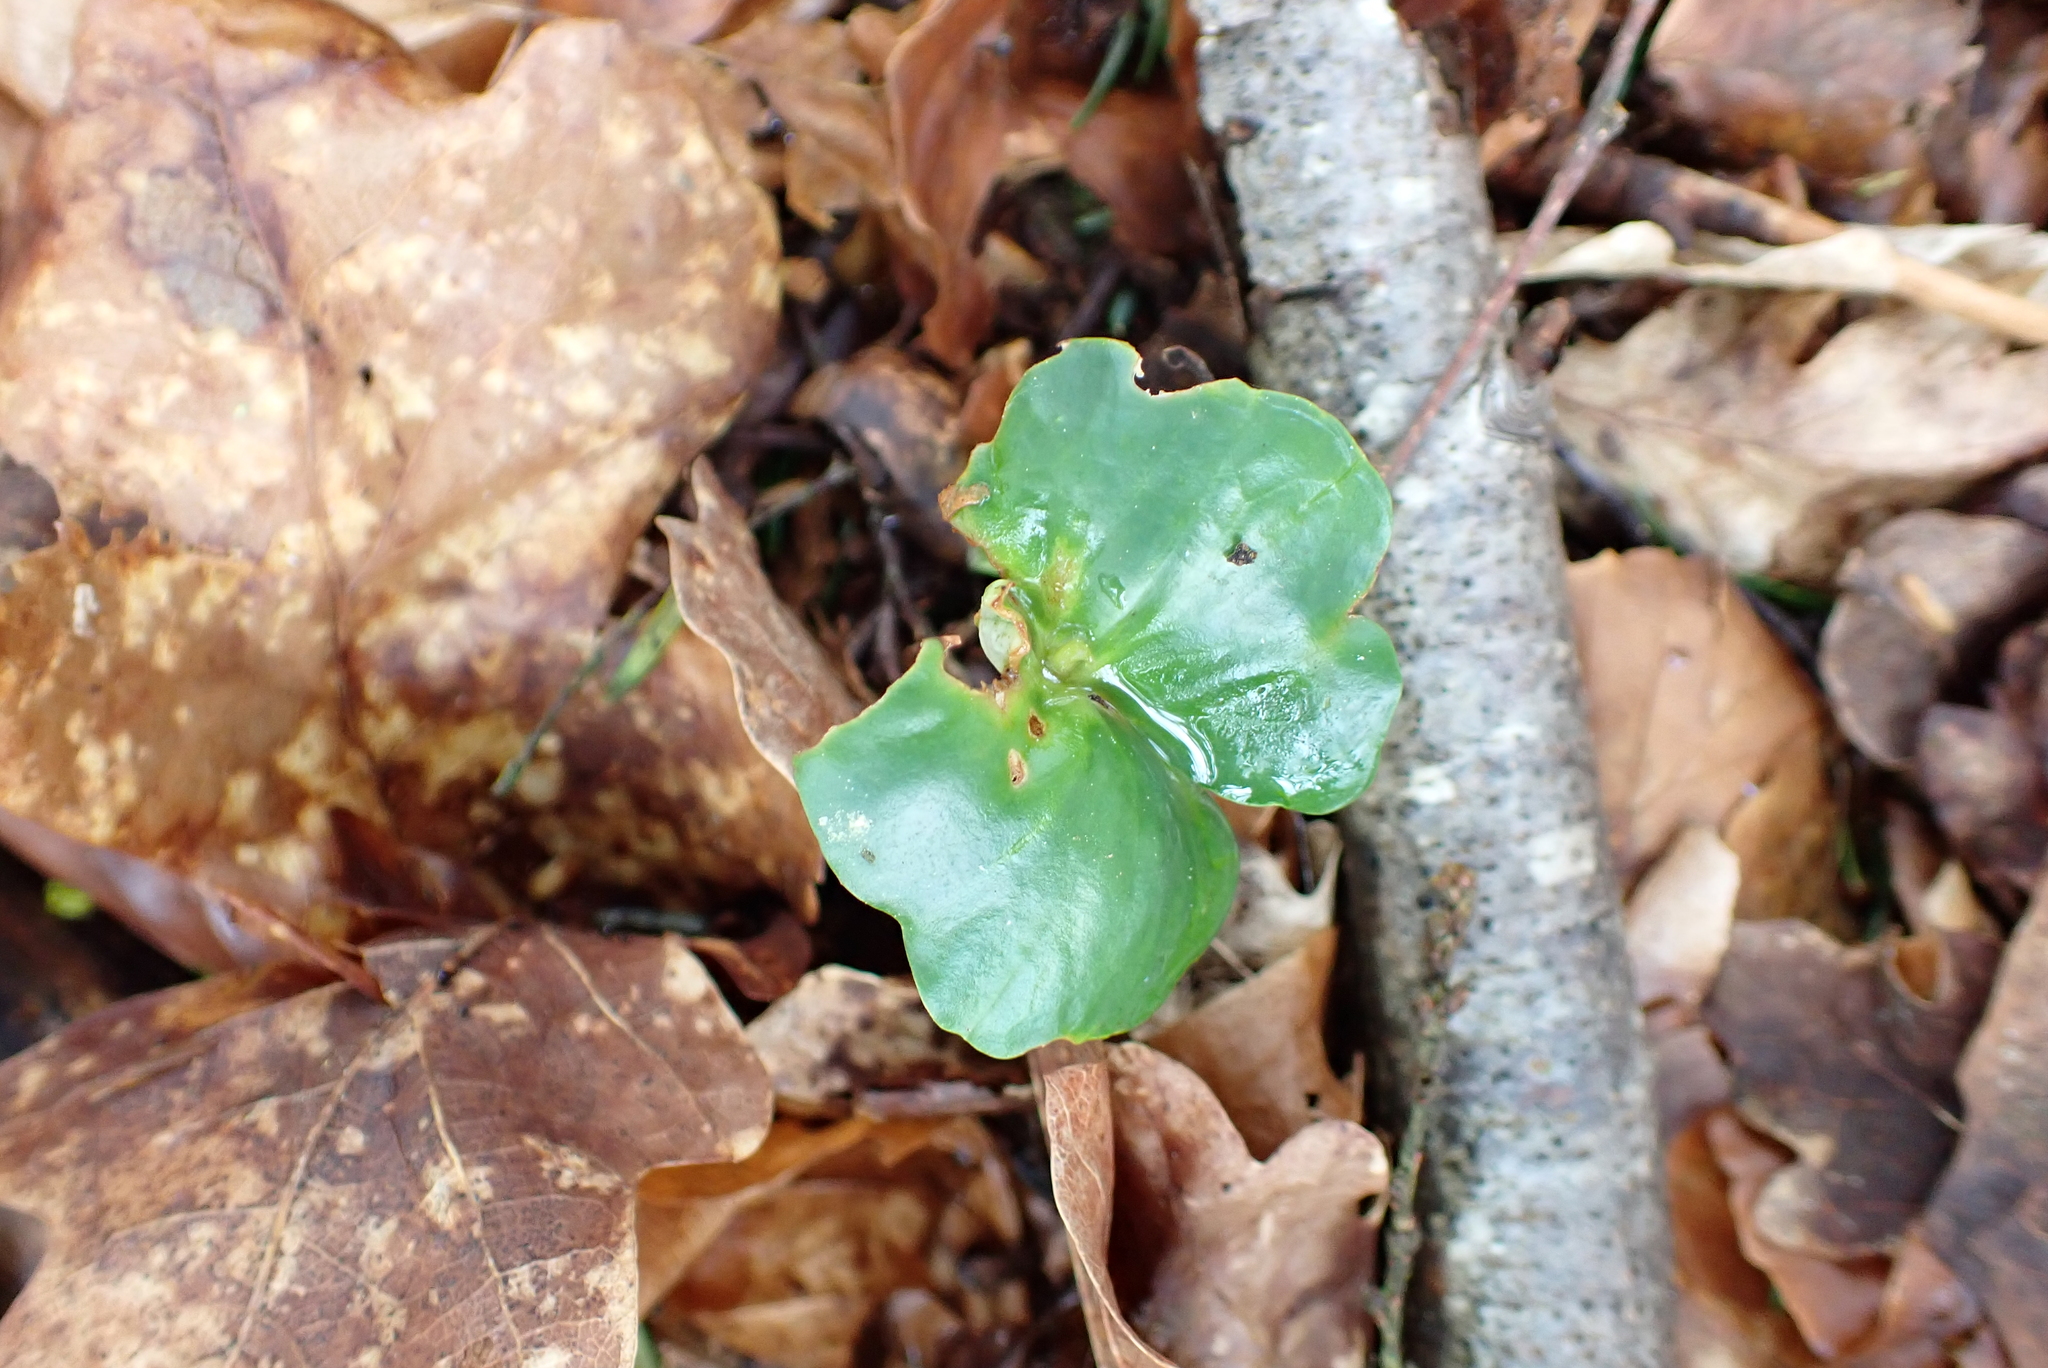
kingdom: Plantae
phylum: Tracheophyta
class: Magnoliopsida
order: Fagales
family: Fagaceae
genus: Fagus
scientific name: Fagus sylvatica
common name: Beech
